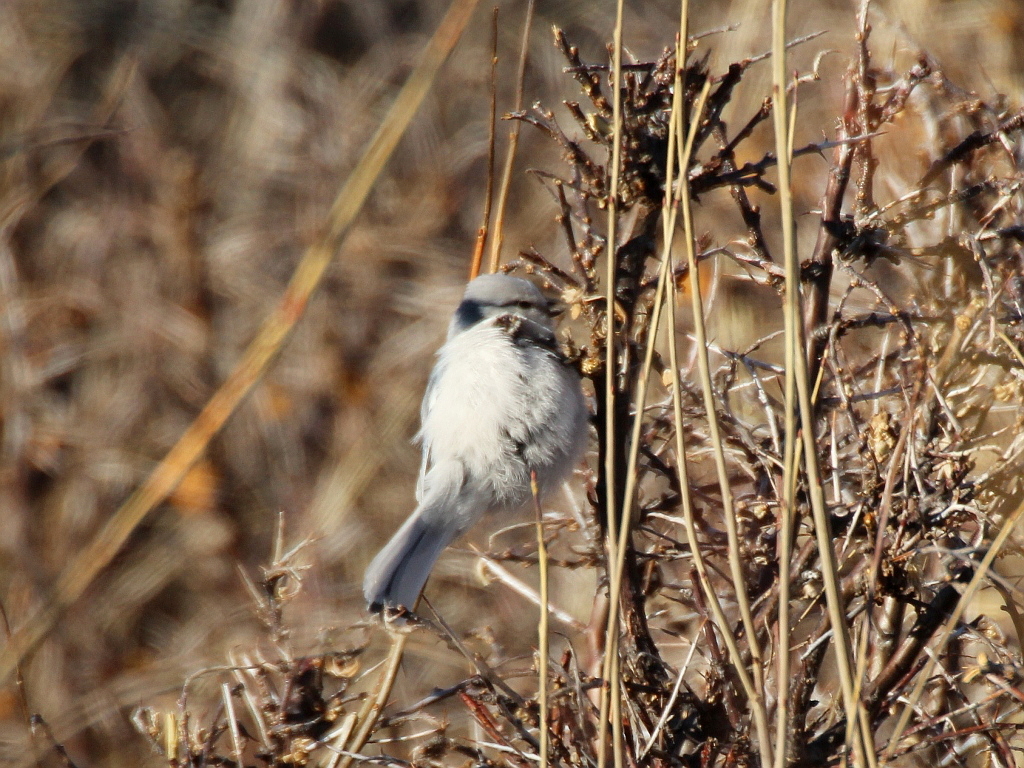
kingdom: Animalia
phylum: Chordata
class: Aves
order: Passeriformes
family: Paridae
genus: Cyanistes
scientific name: Cyanistes cyanus
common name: Azure tit
